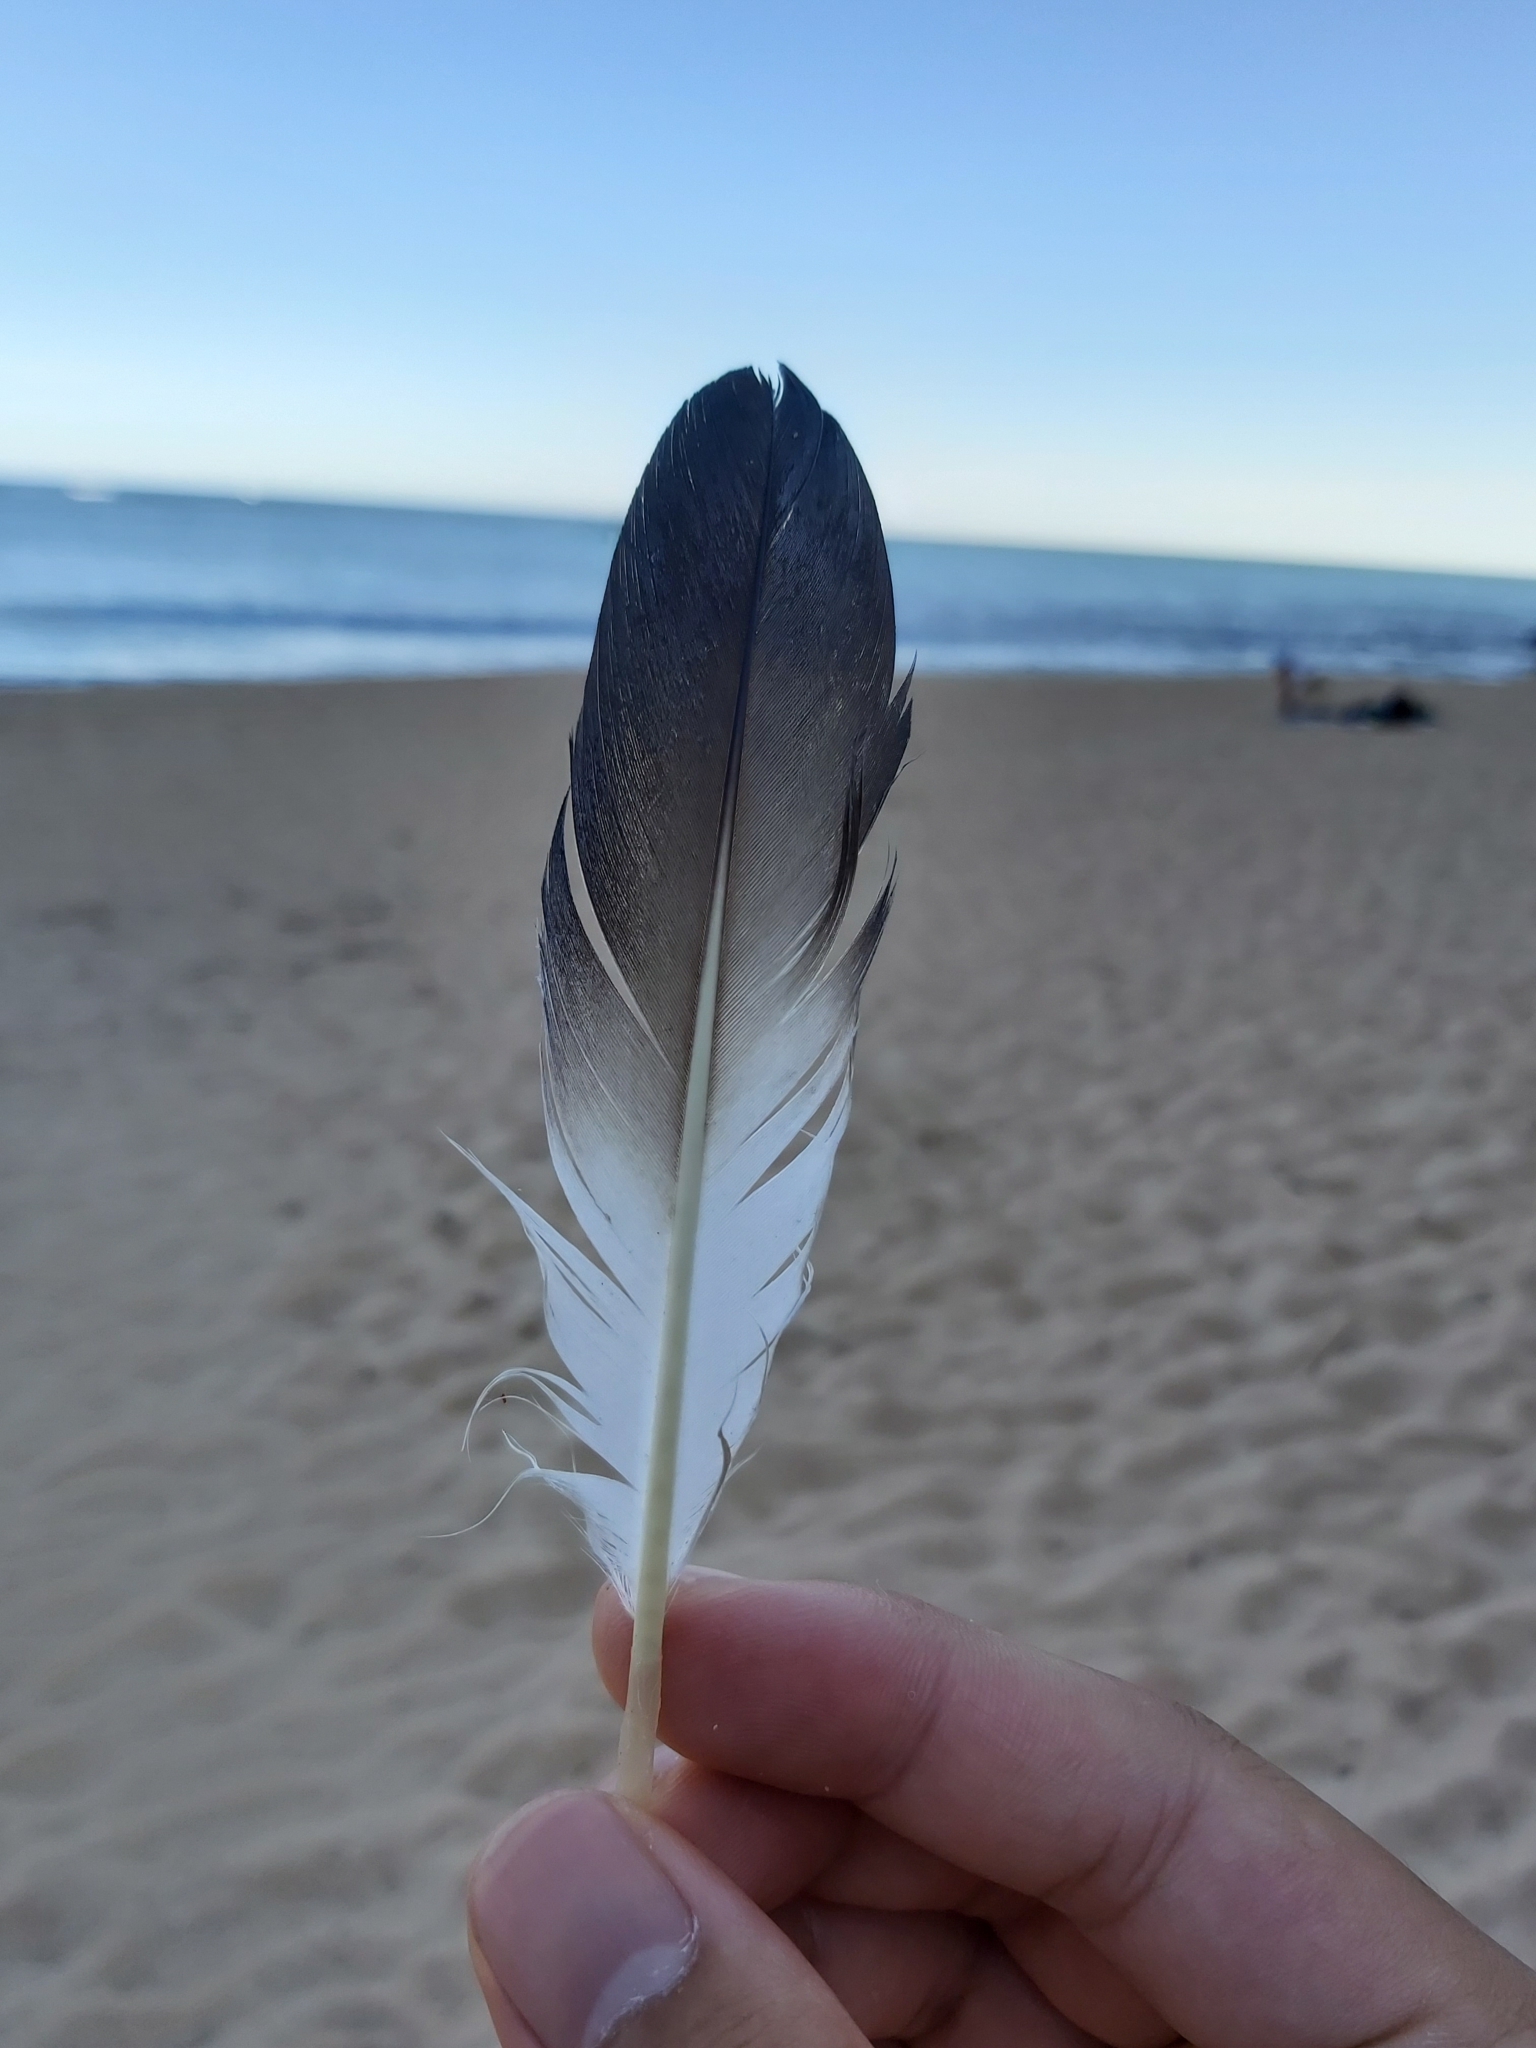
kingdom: Animalia
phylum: Chordata
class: Aves
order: Suliformes
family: Sulidae
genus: Morus
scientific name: Morus serrator
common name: Australasian gannet
